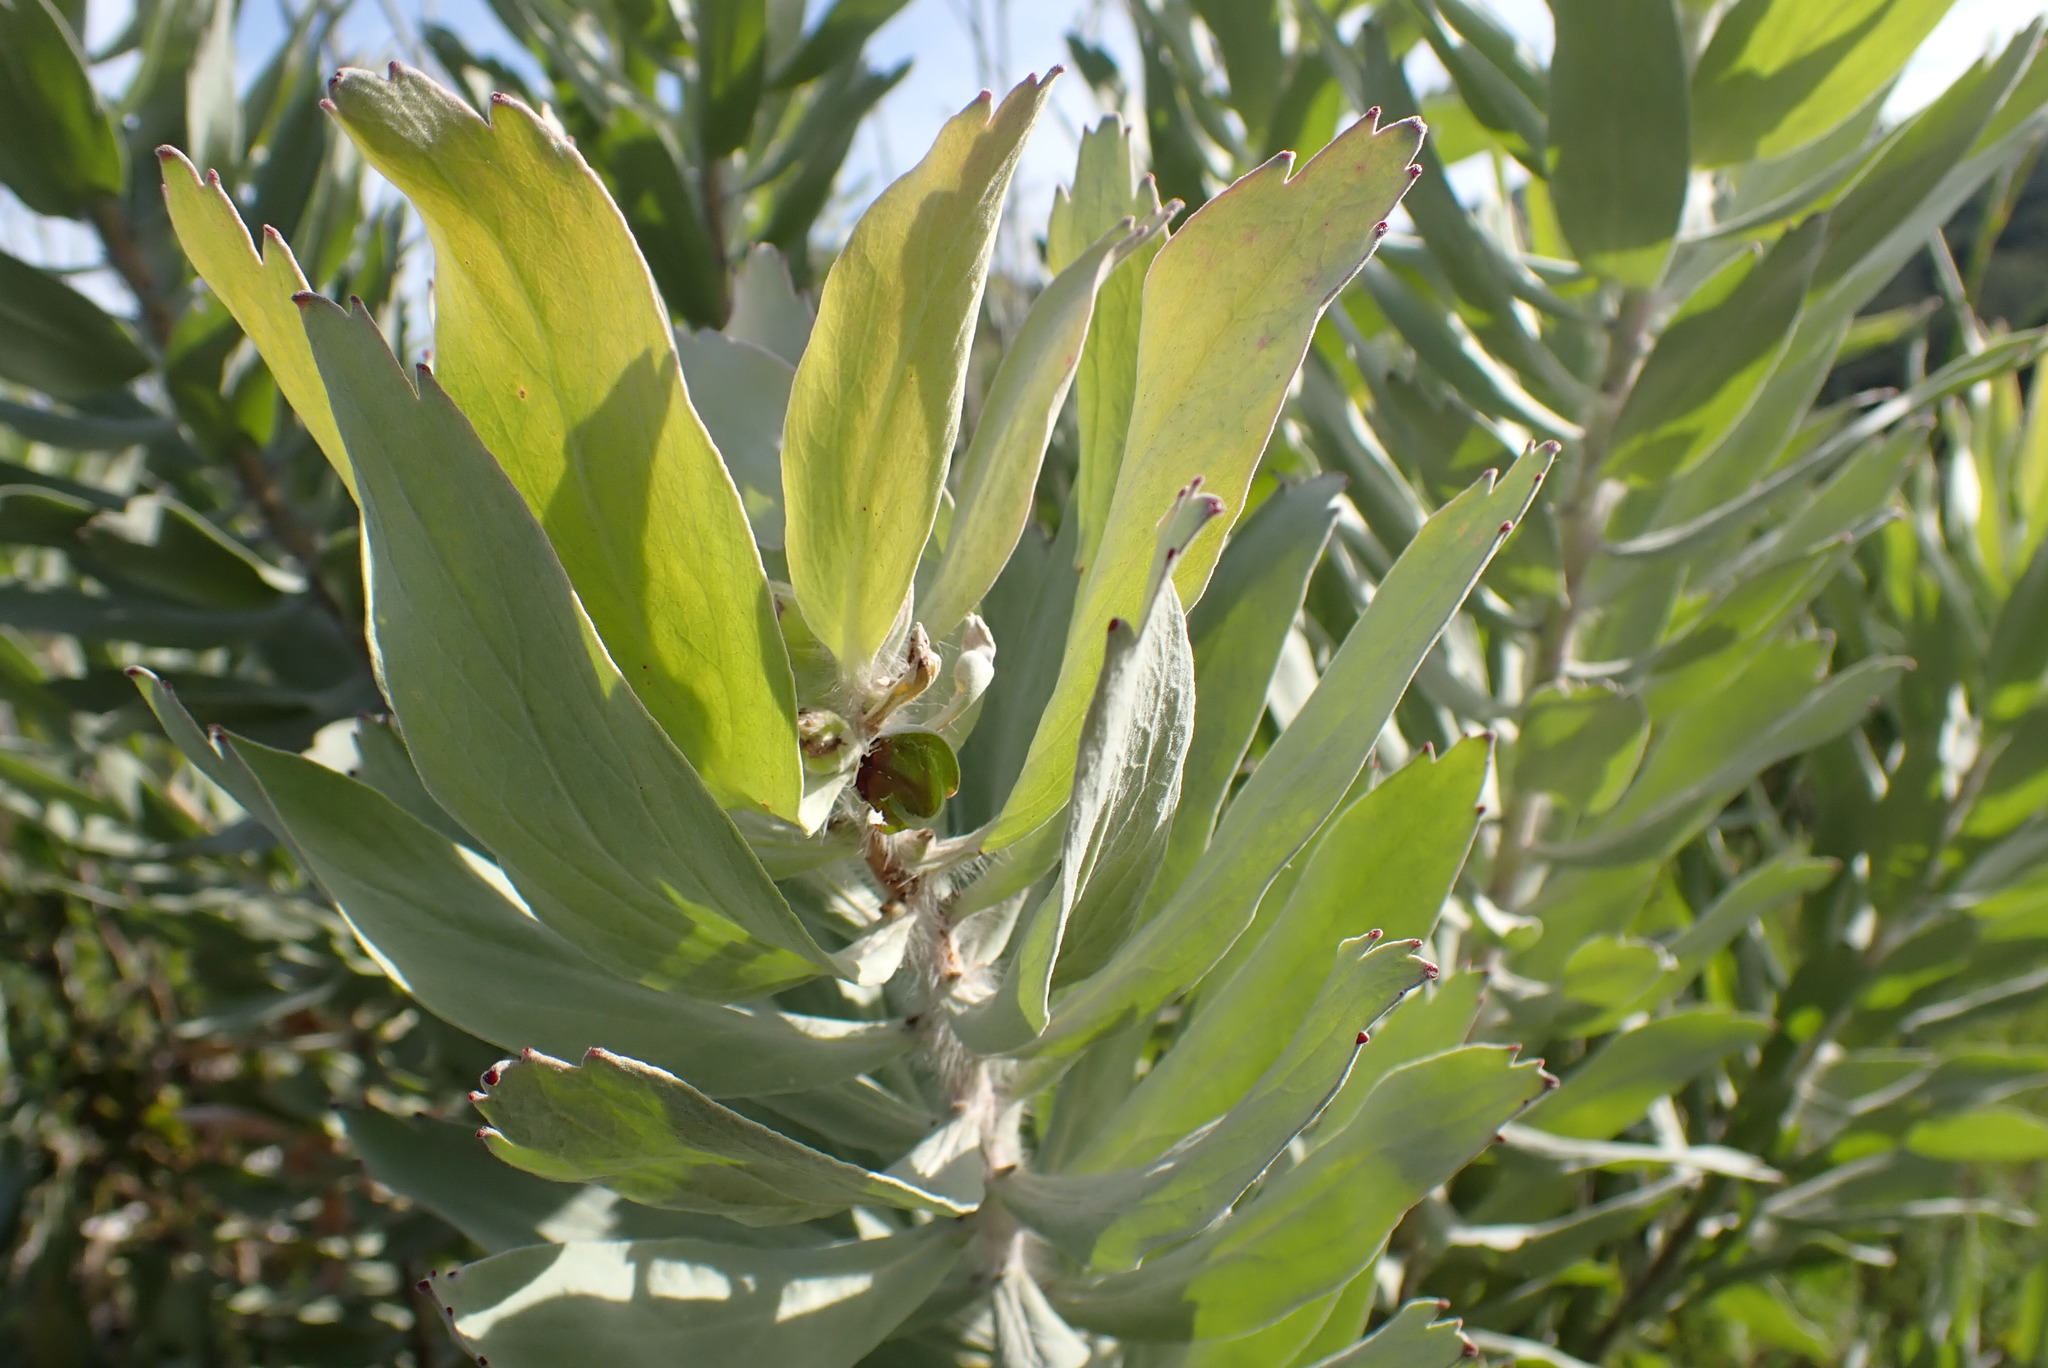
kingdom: Plantae
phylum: Tracheophyta
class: Magnoliopsida
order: Proteales
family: Proteaceae
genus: Leucospermum
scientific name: Leucospermum formosum
